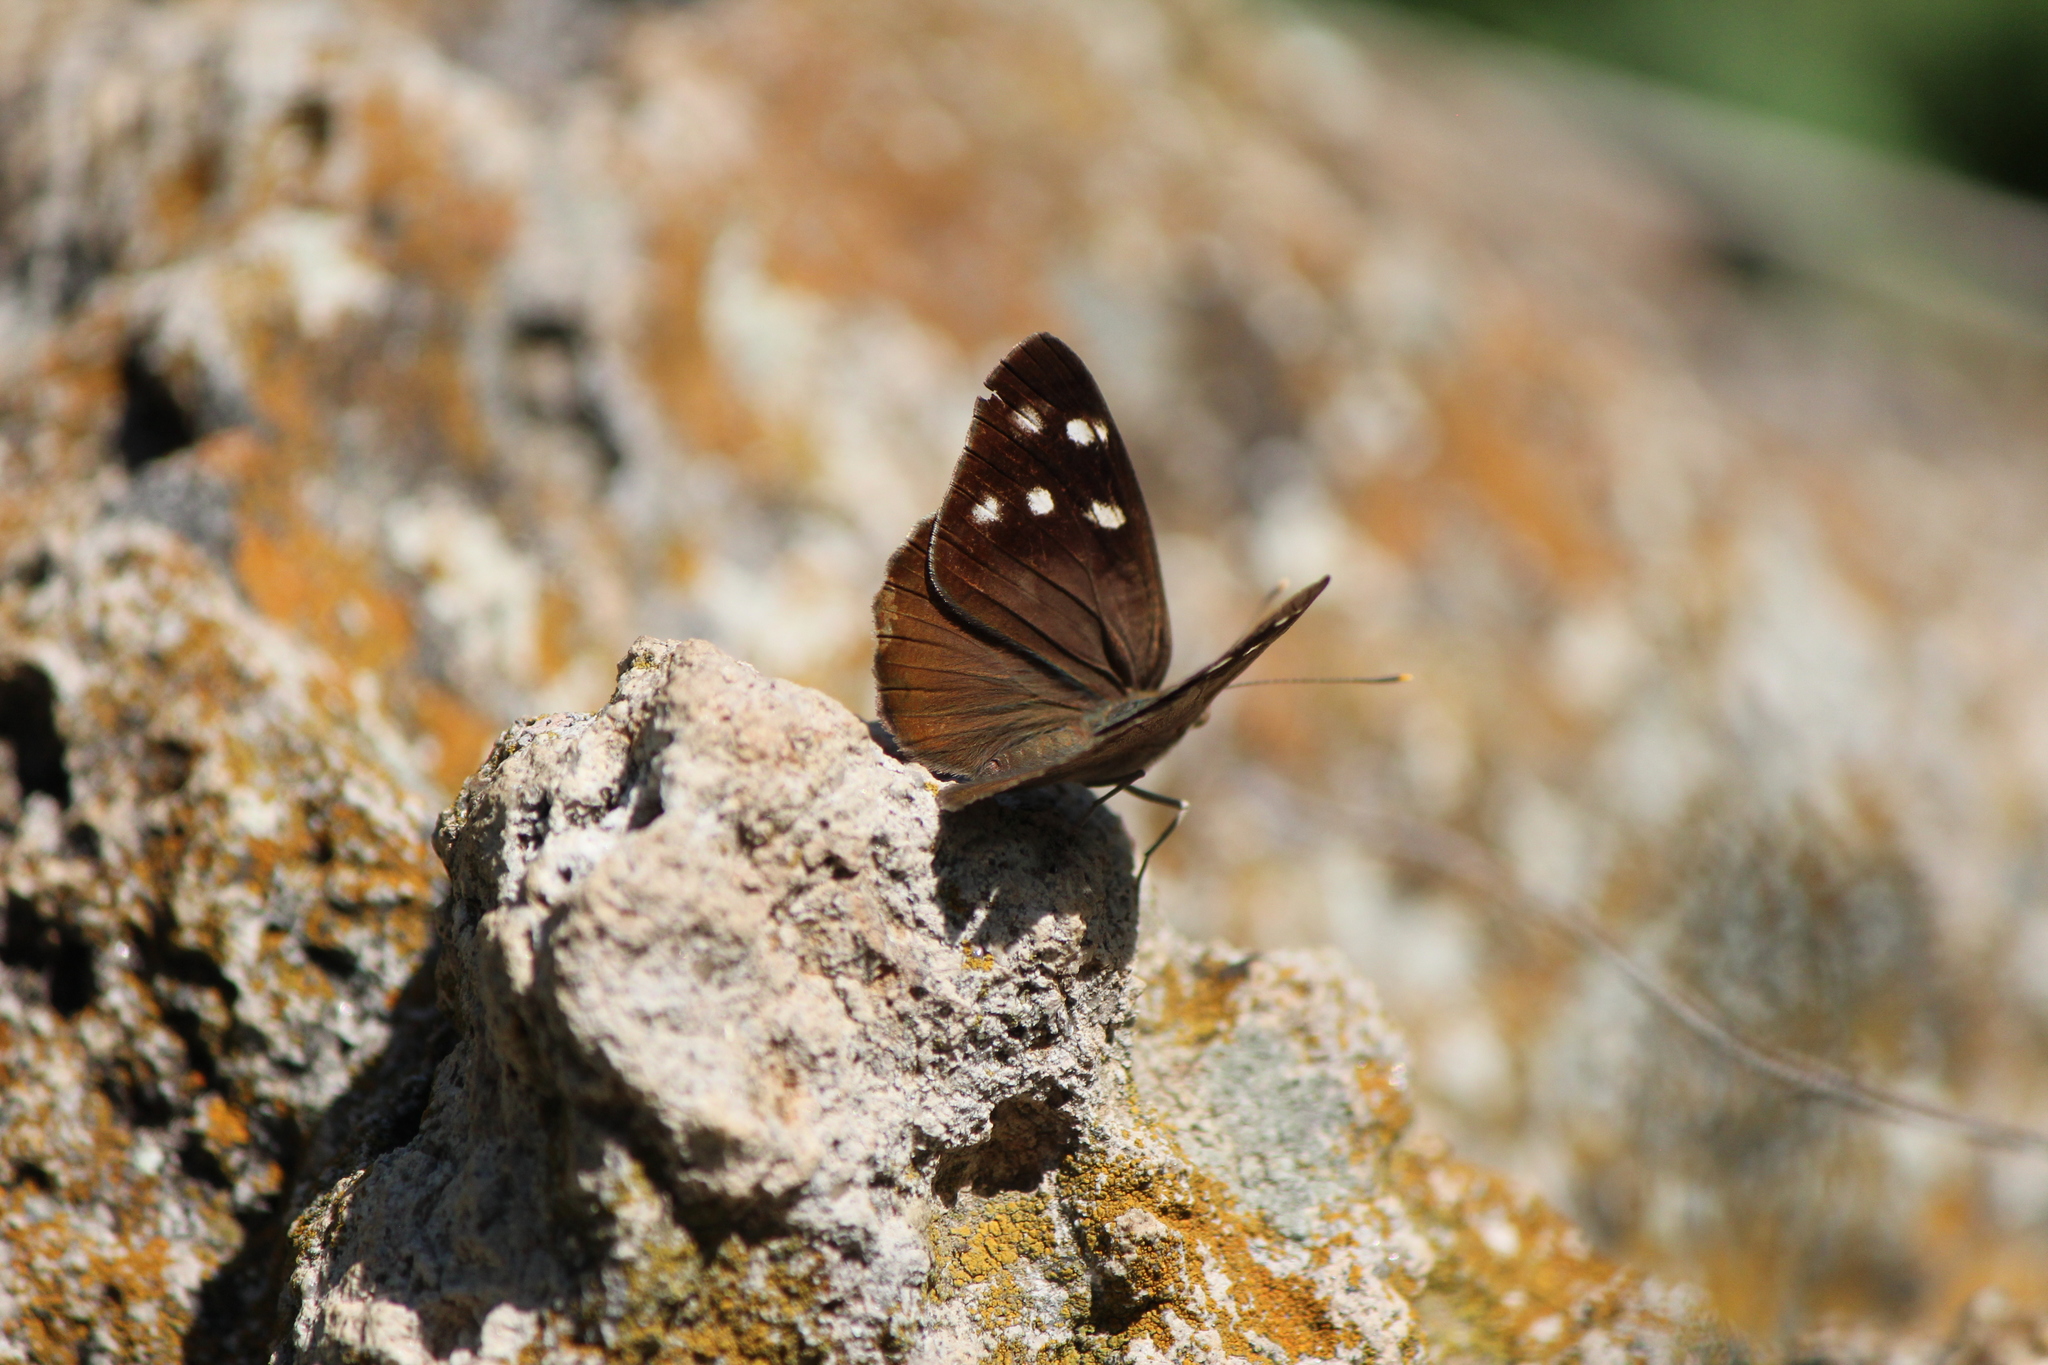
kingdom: Animalia
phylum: Arthropoda
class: Insecta
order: Lepidoptera
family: Nymphalidae
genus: Eunica
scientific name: Eunica monima
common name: Dingy purplewing
